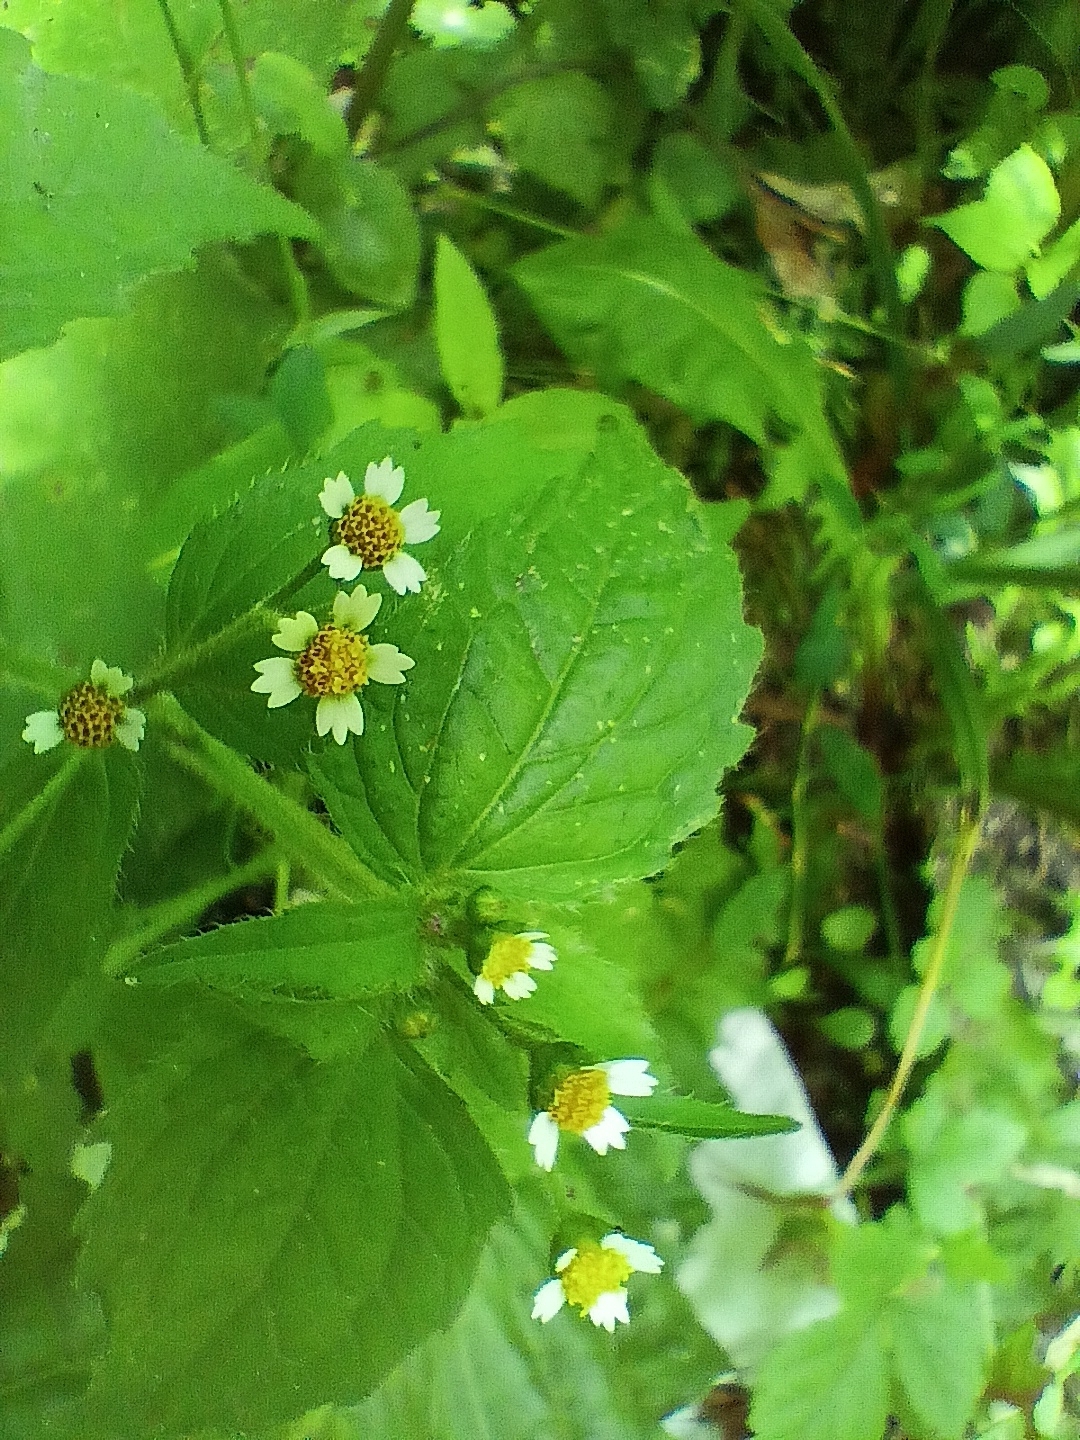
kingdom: Plantae
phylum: Tracheophyta
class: Magnoliopsida
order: Asterales
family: Asteraceae
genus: Galinsoga
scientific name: Galinsoga quadriradiata
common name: Shaggy soldier
